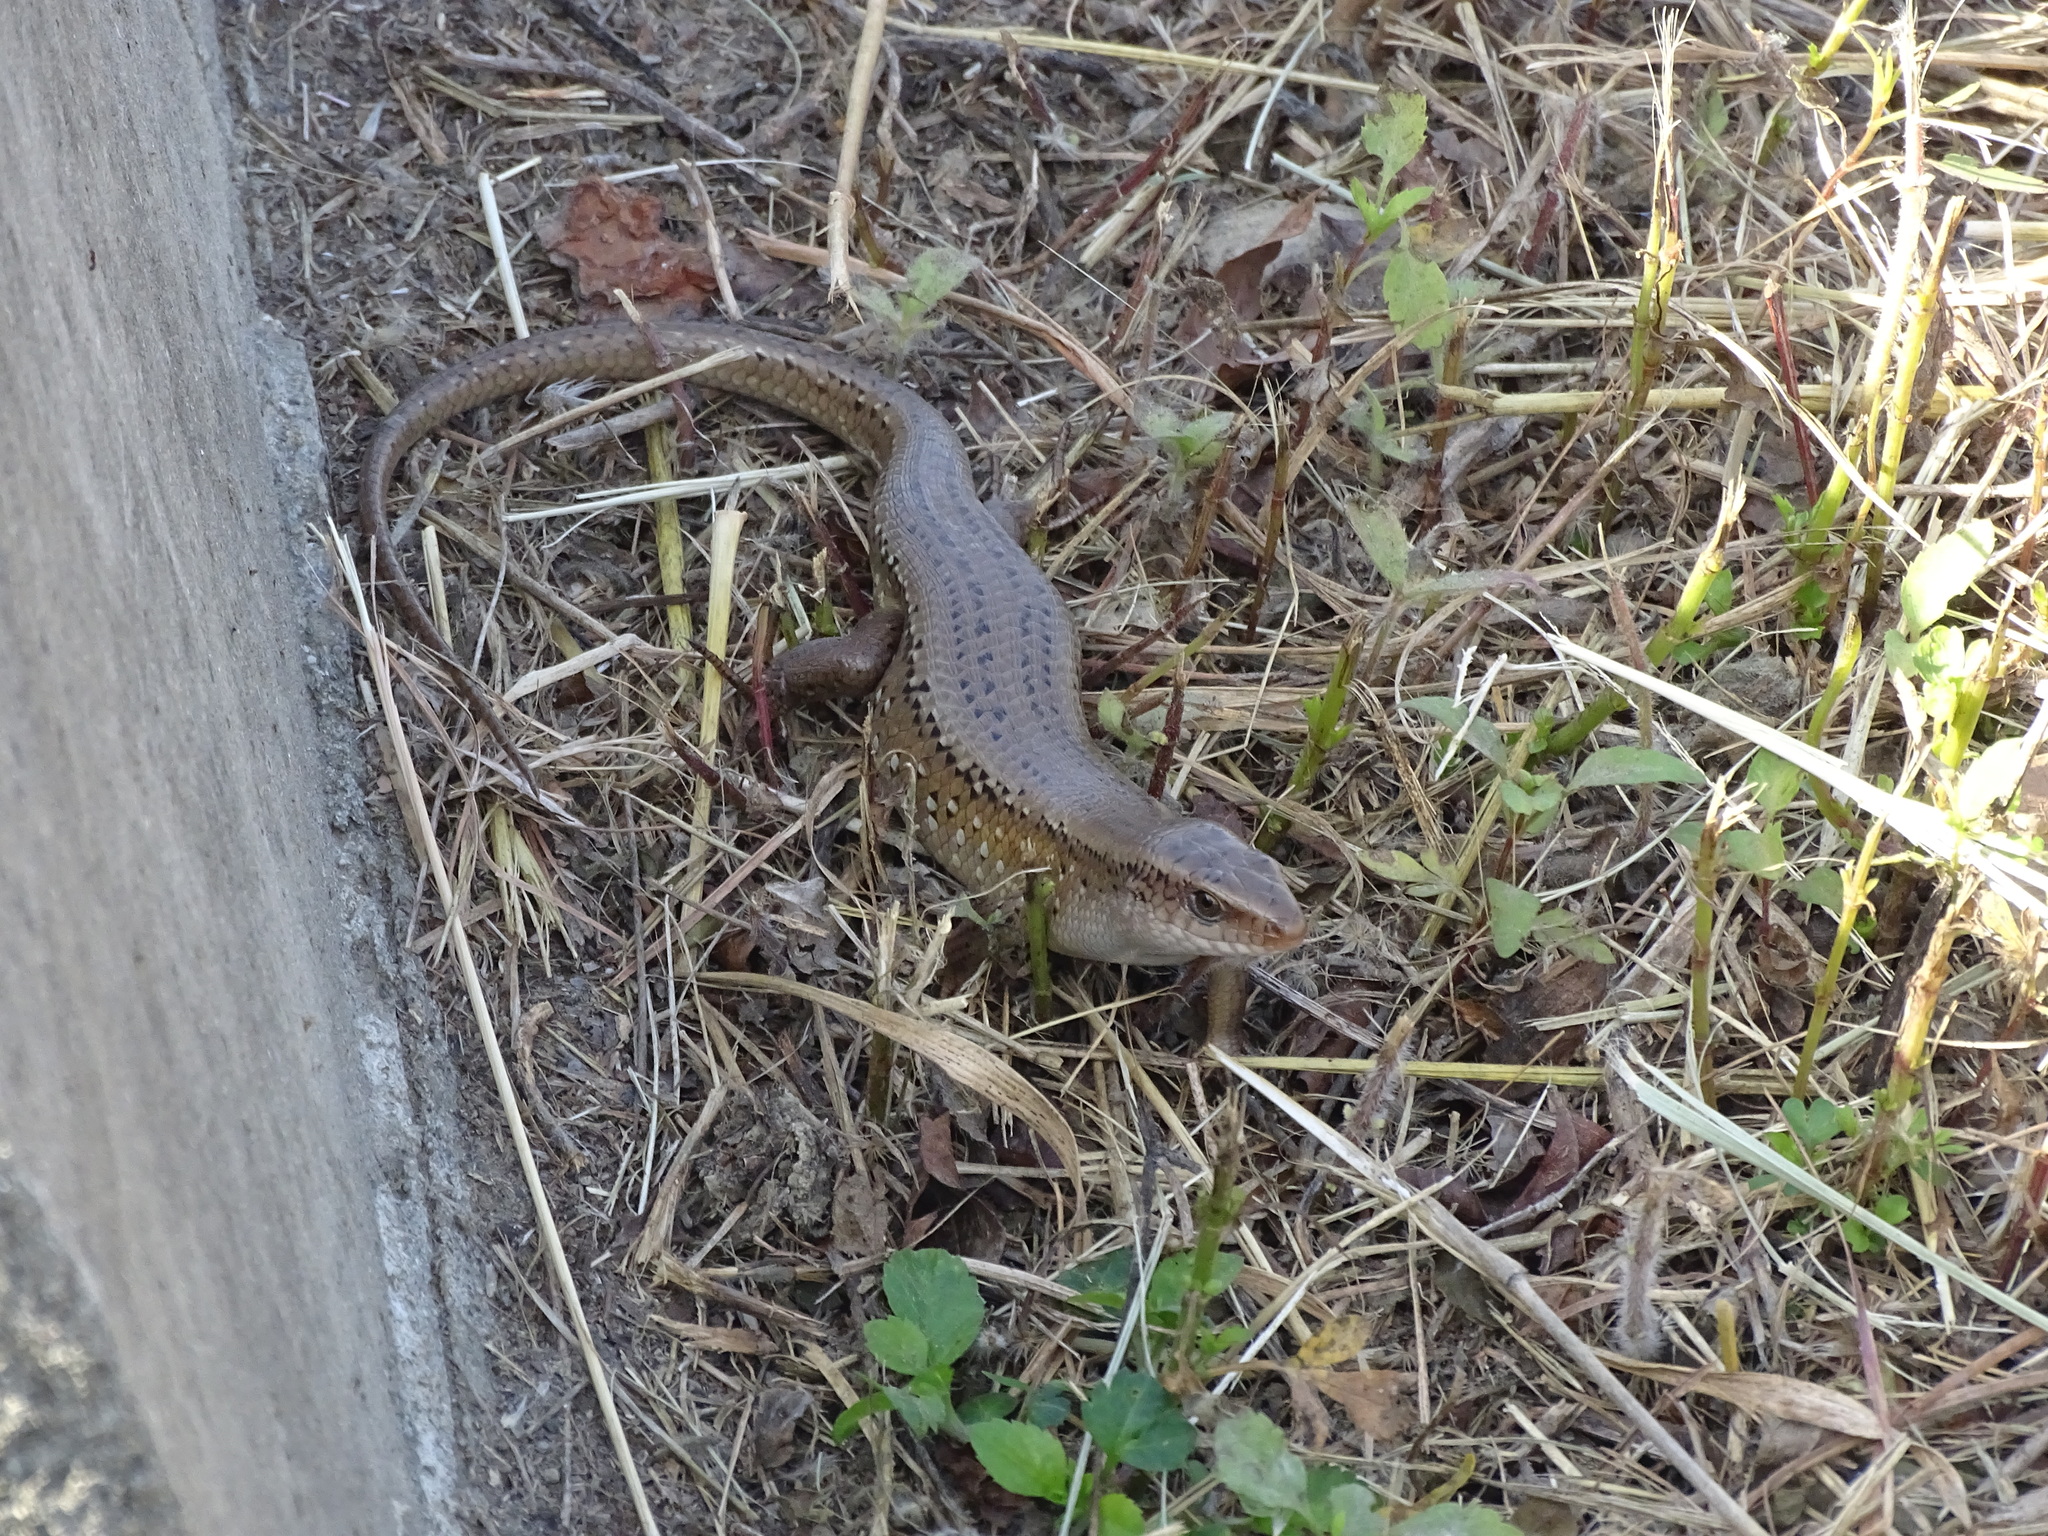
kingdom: Animalia
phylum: Chordata
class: Squamata
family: Scincidae
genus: Eutropis
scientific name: Eutropis multifasciata
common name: Common mabuya
